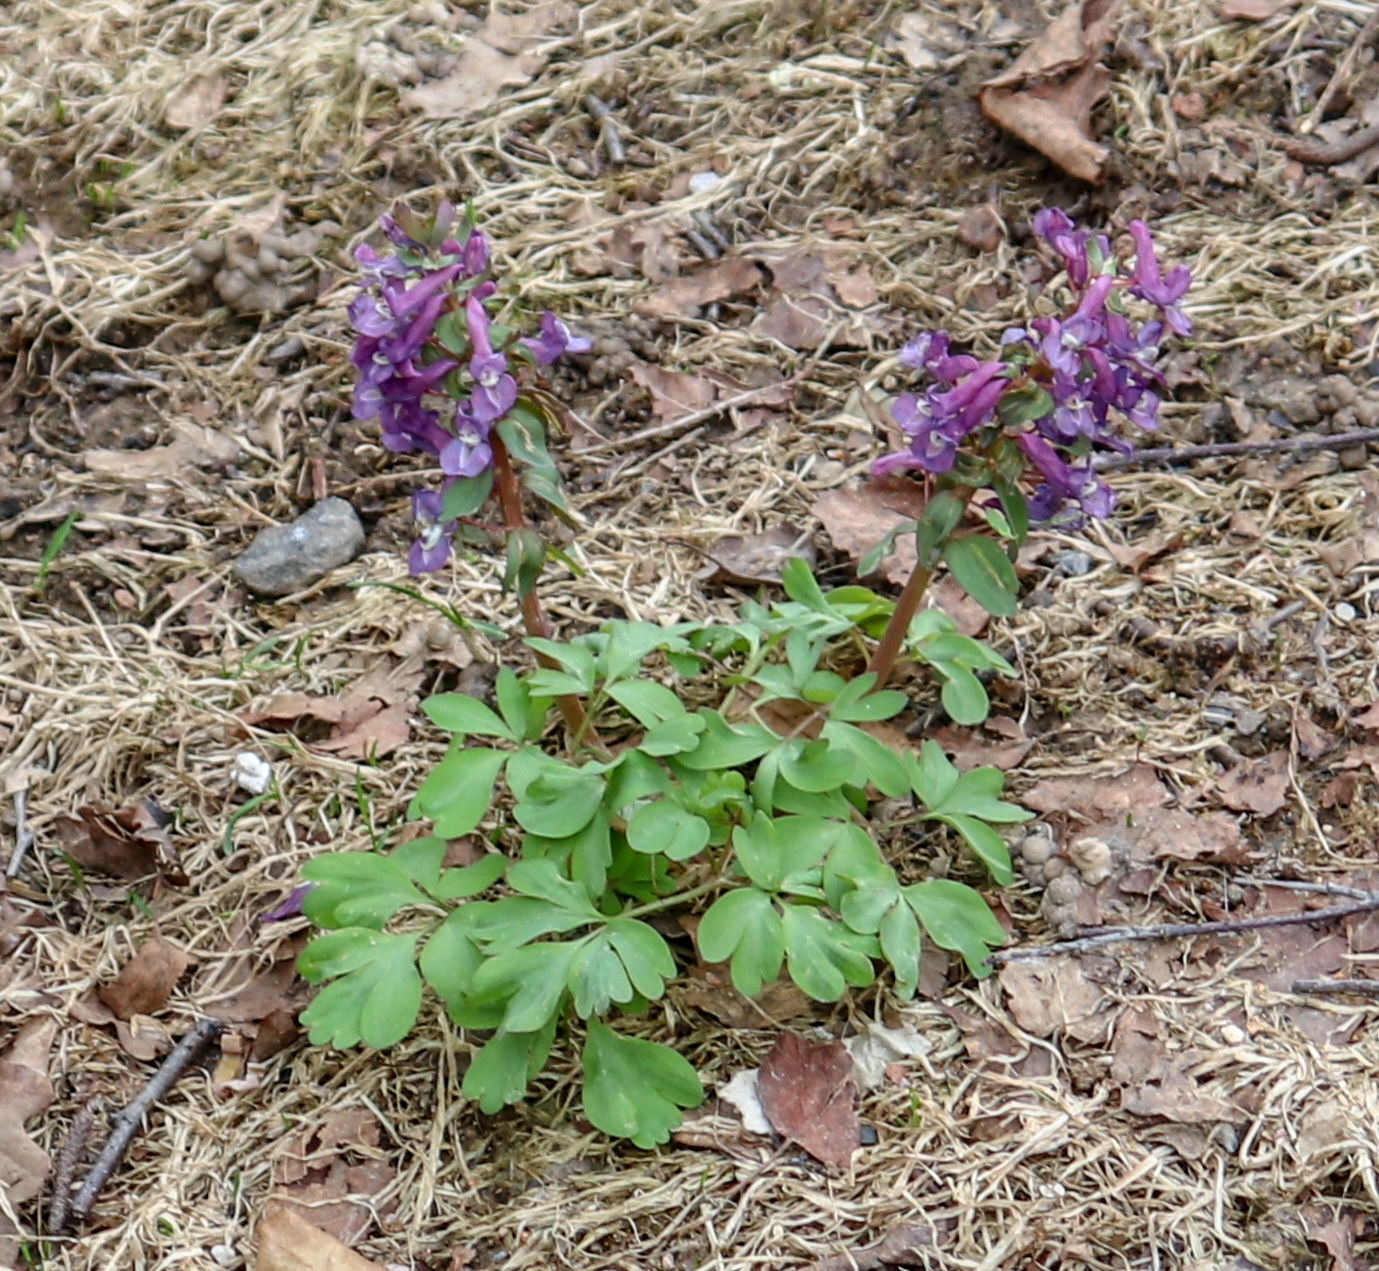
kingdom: Plantae
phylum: Tracheophyta
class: Magnoliopsida
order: Ranunculales
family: Papaveraceae
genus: Corydalis
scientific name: Corydalis solida
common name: Bird-in-a-bush
